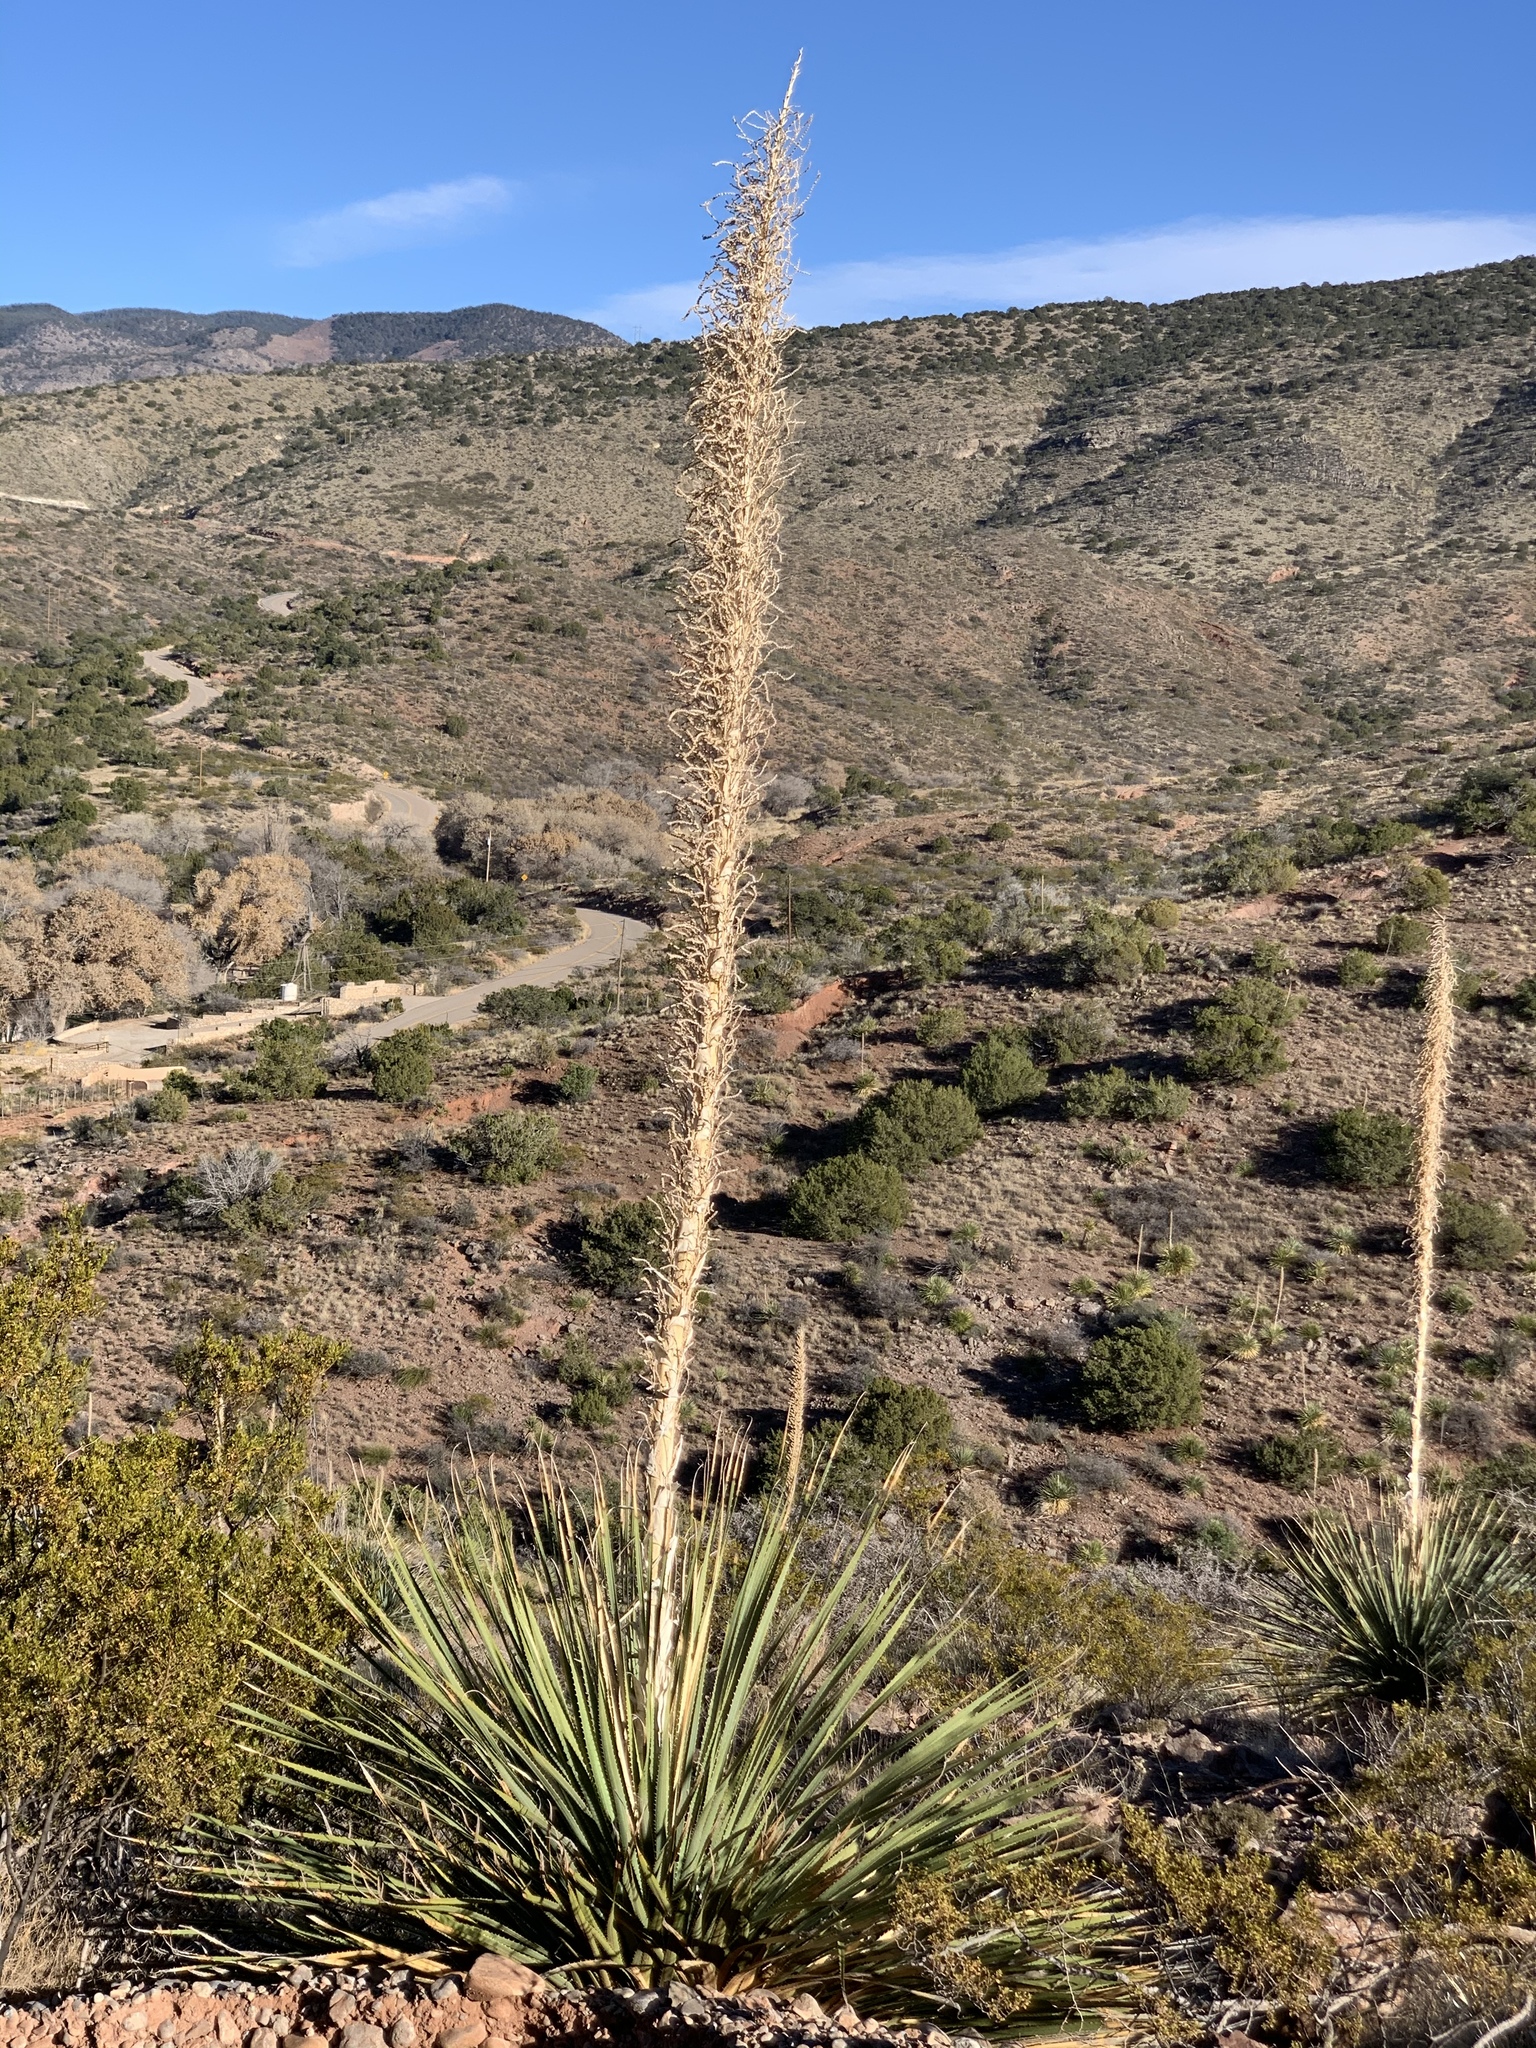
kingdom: Plantae
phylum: Tracheophyta
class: Liliopsida
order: Asparagales
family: Asparagaceae
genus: Dasylirion
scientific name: Dasylirion wheeleri
